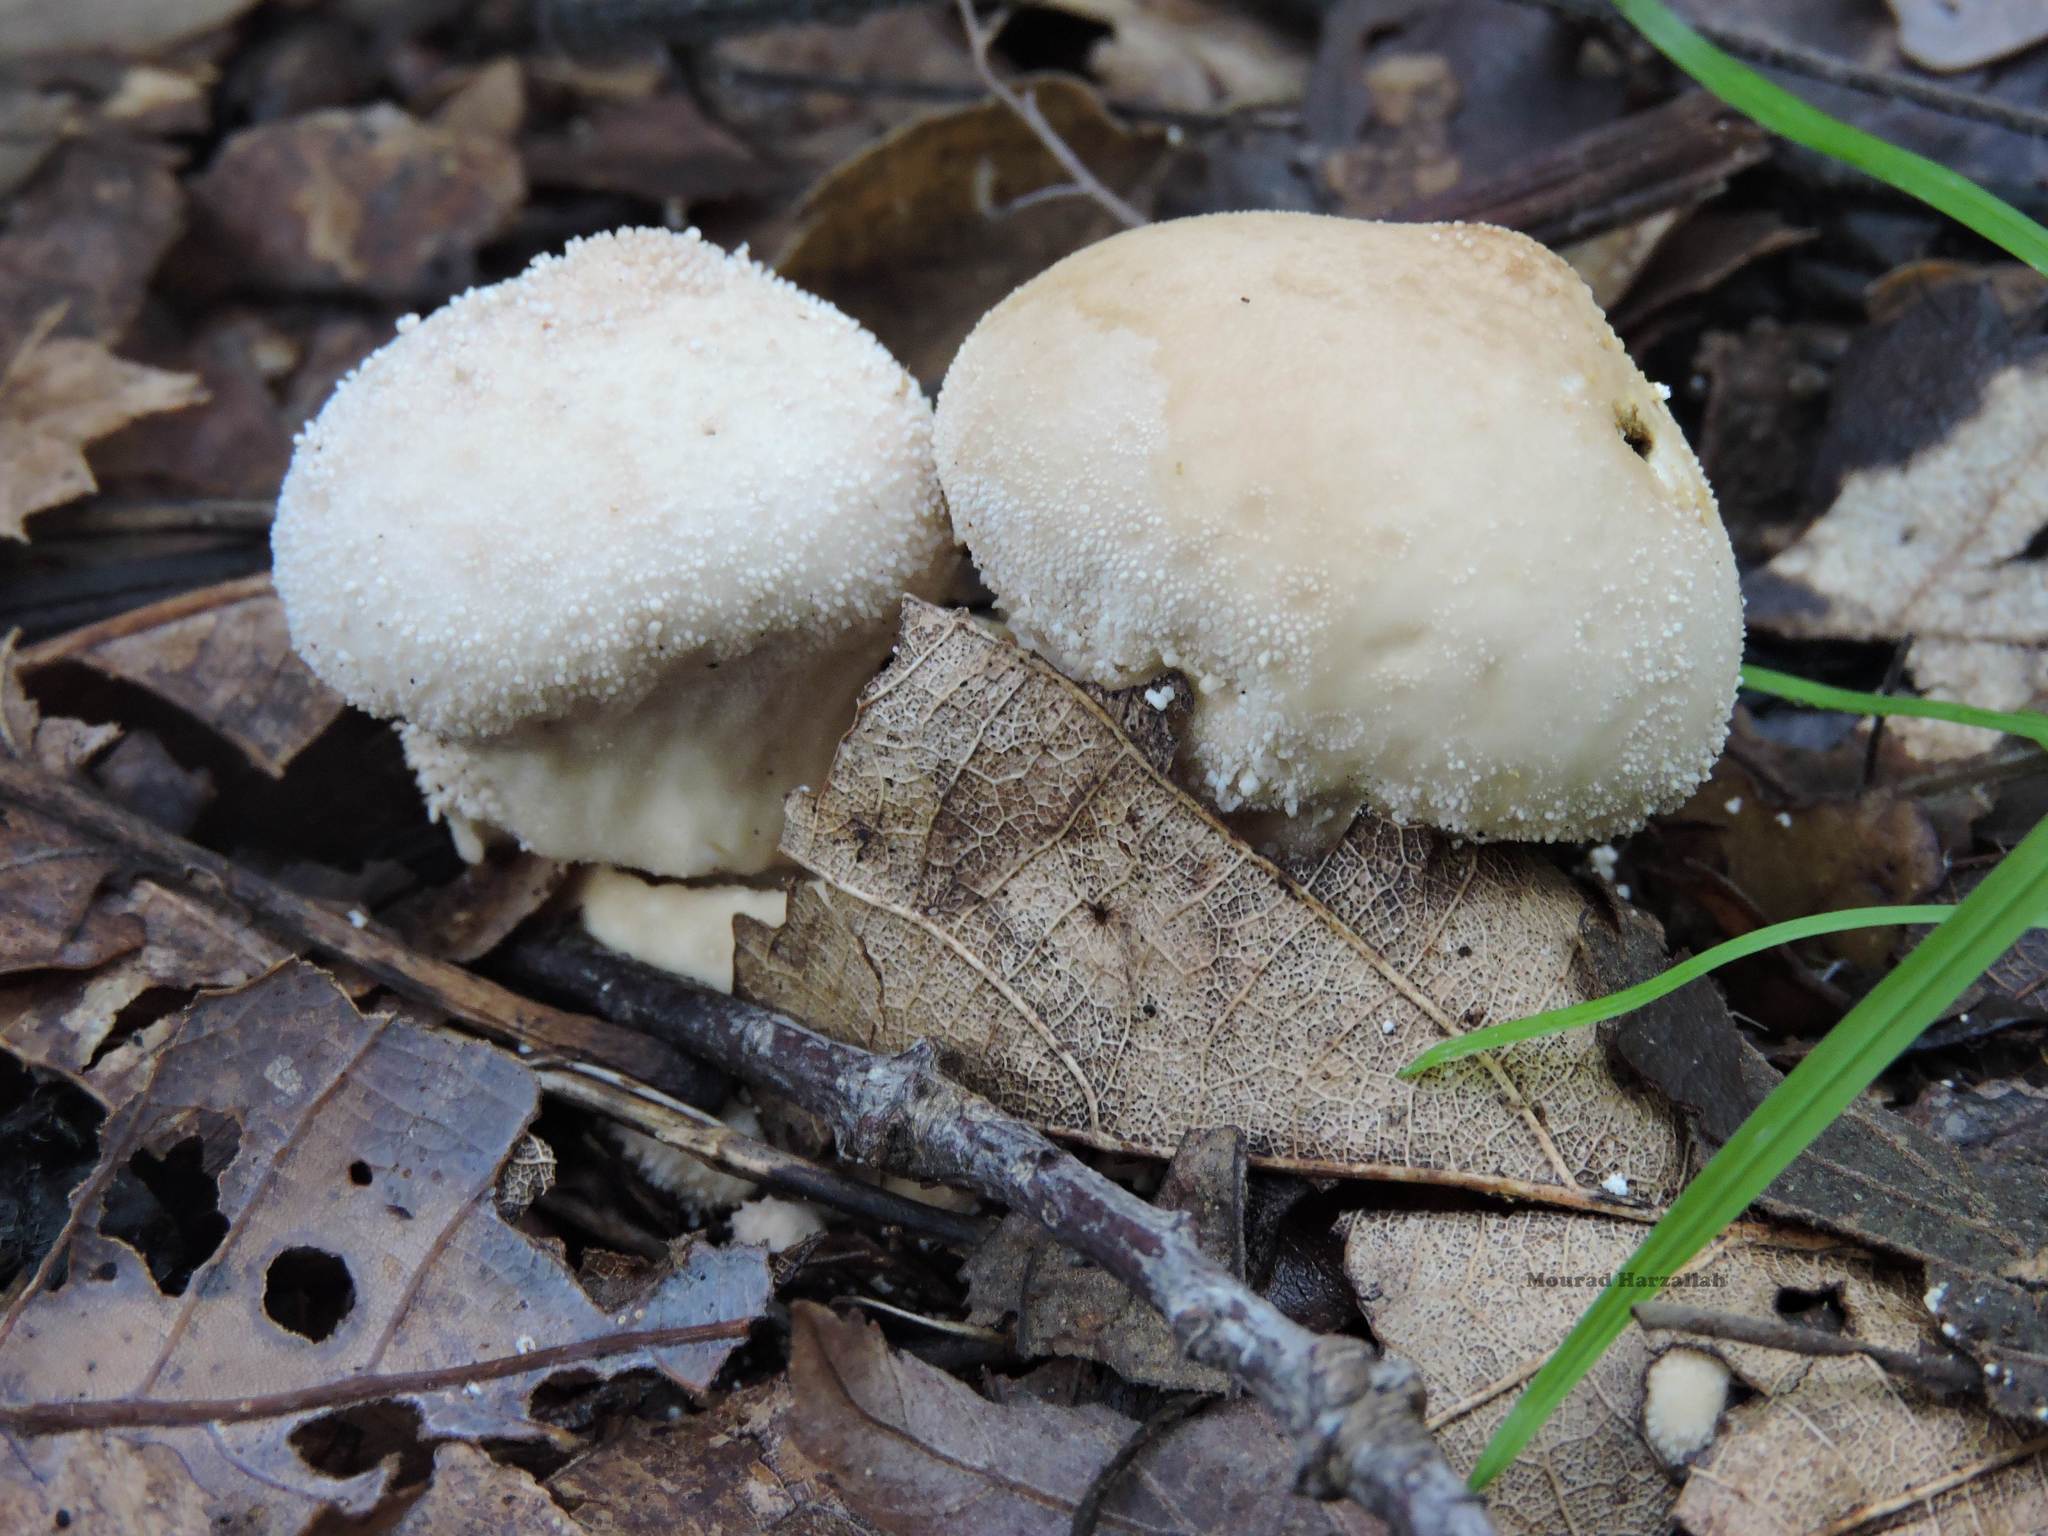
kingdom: Fungi
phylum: Basidiomycota
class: Agaricomycetes
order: Agaricales
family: Lycoperdaceae
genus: Lycoperdon
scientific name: Lycoperdon perlatum
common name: Common puffball
